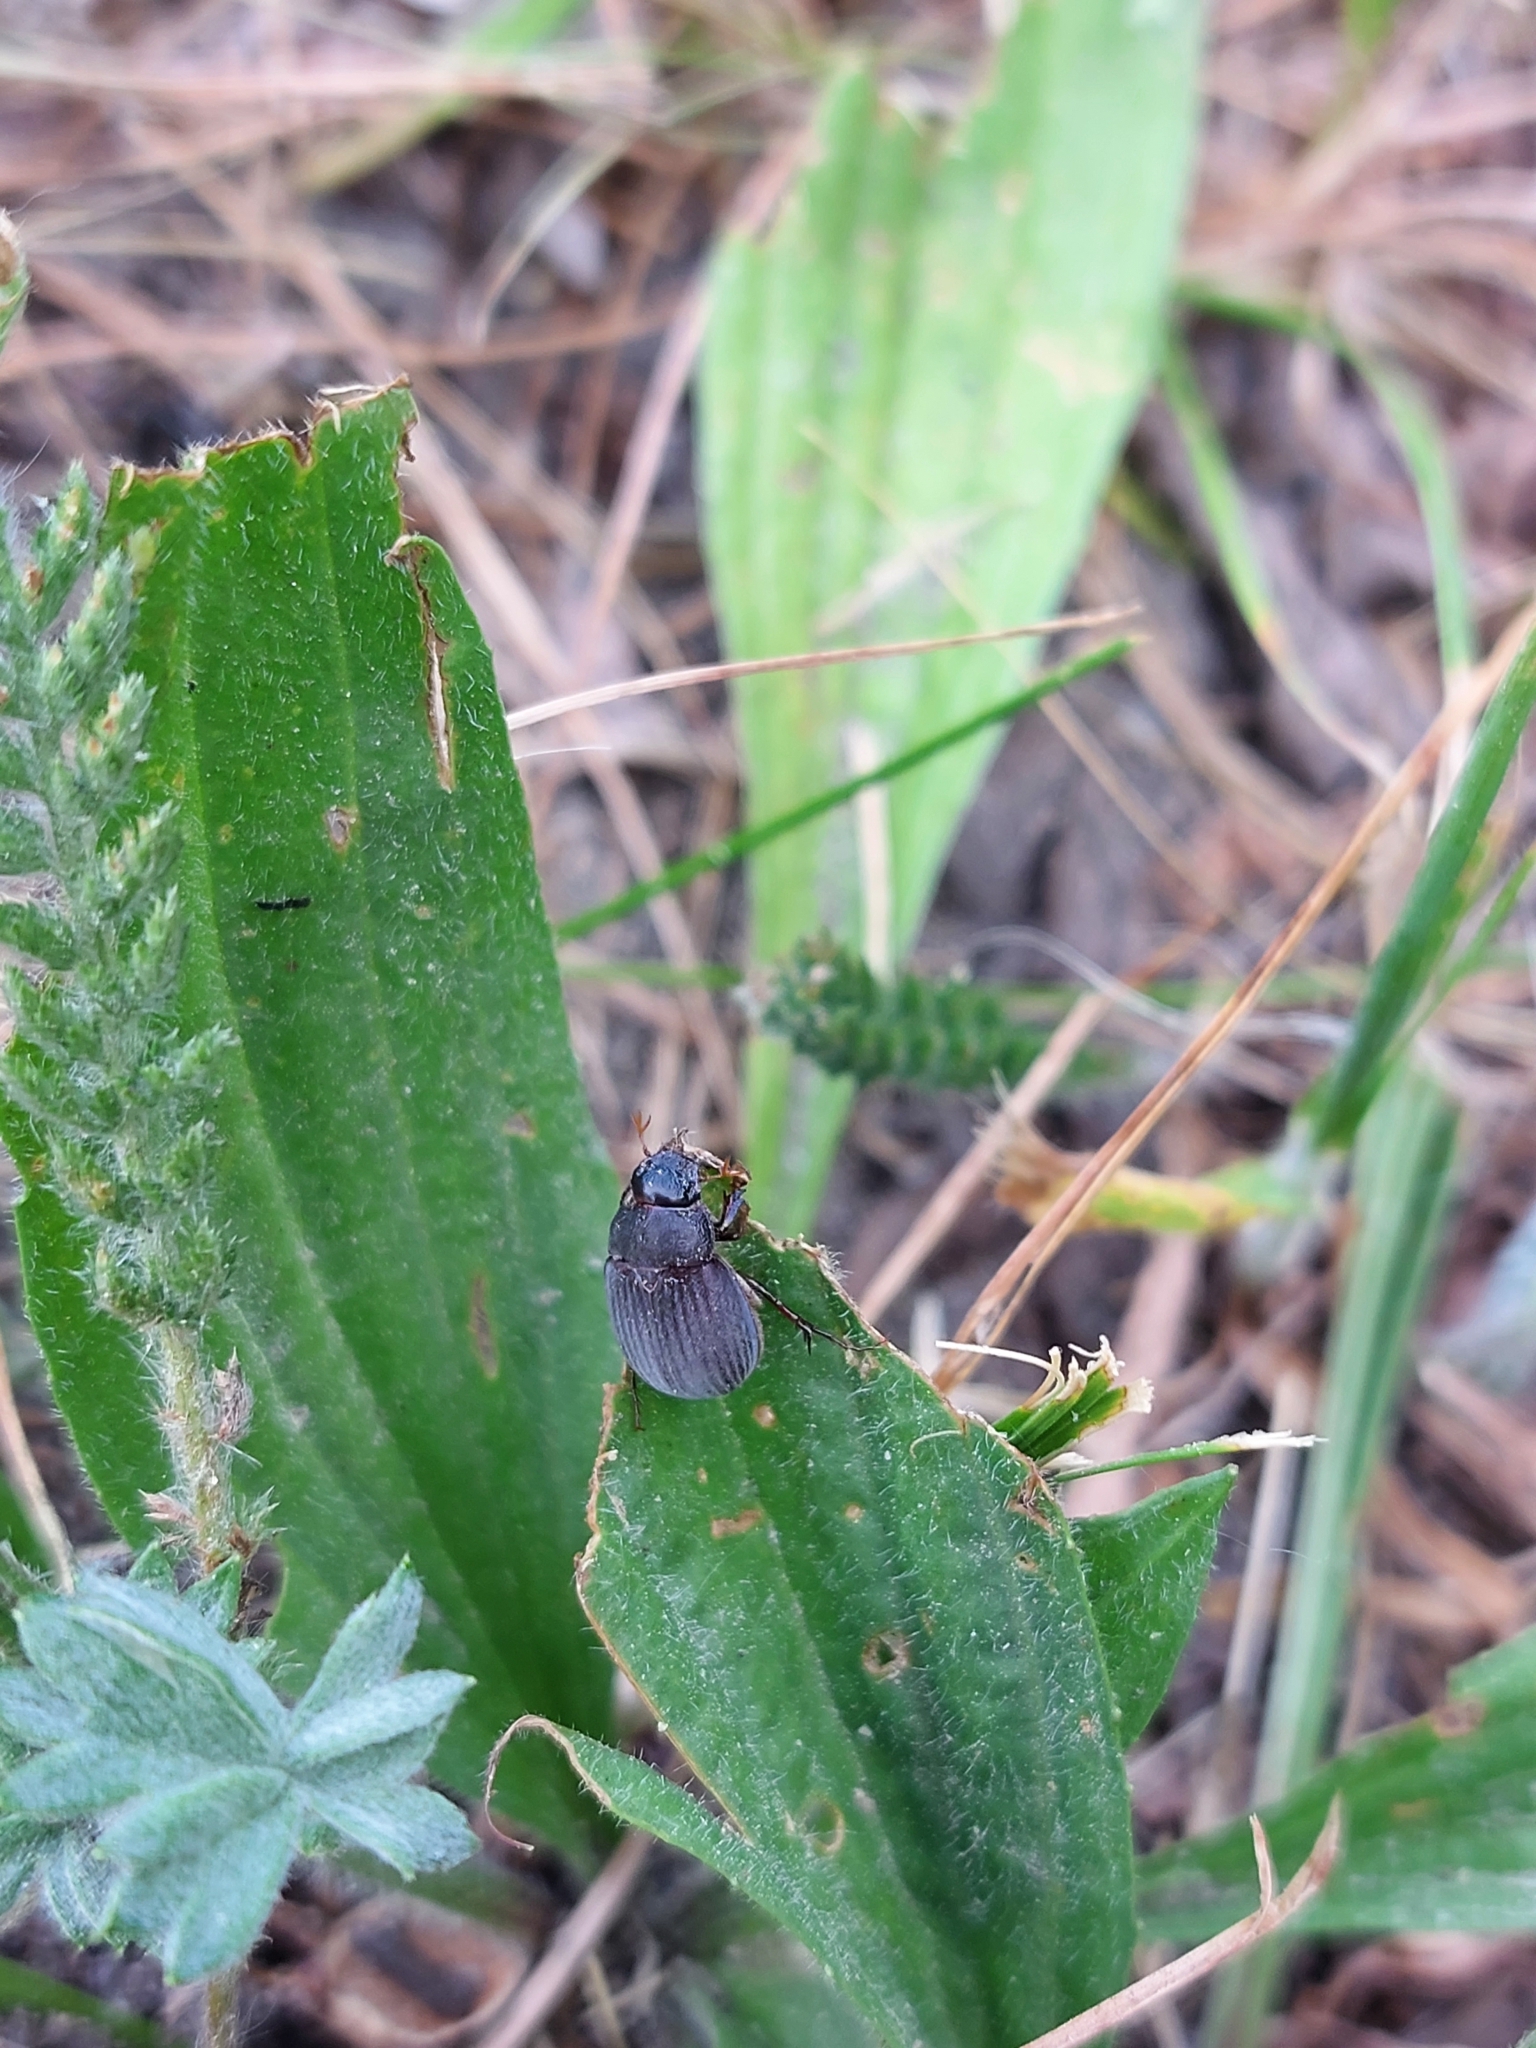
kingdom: Animalia
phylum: Arthropoda
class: Insecta
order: Coleoptera
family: Scarabaeidae
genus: Maladera
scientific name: Maladera holosericea
